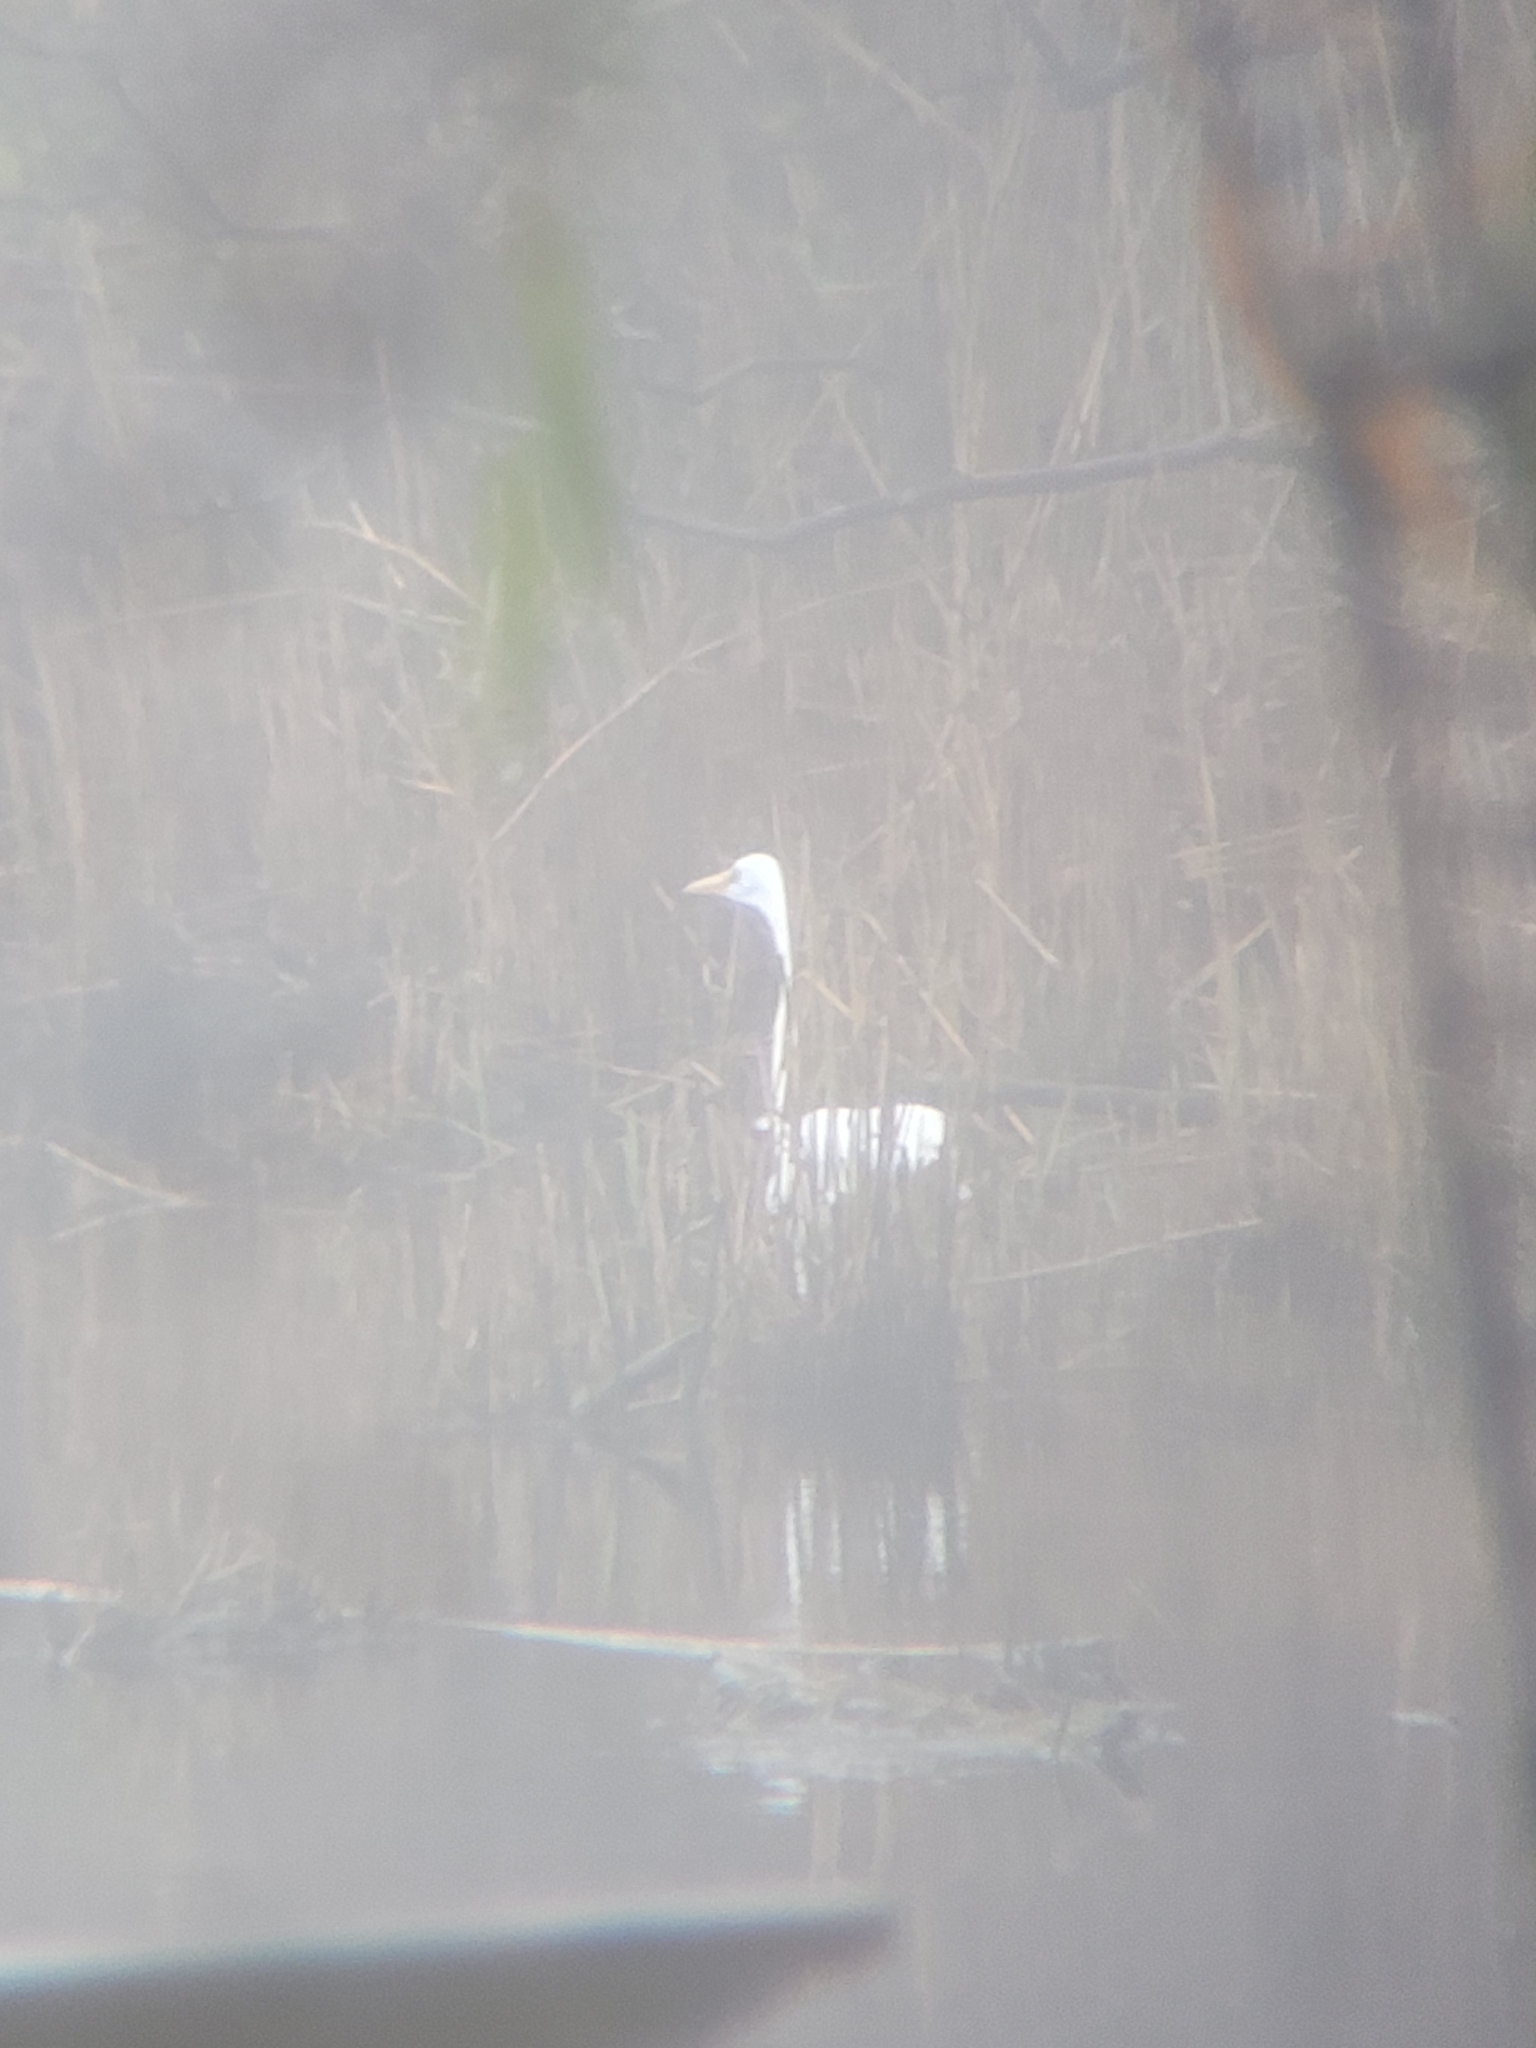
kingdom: Animalia
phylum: Chordata
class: Aves
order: Pelecaniformes
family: Ardeidae
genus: Ardea
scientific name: Ardea alba
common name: Great egret
